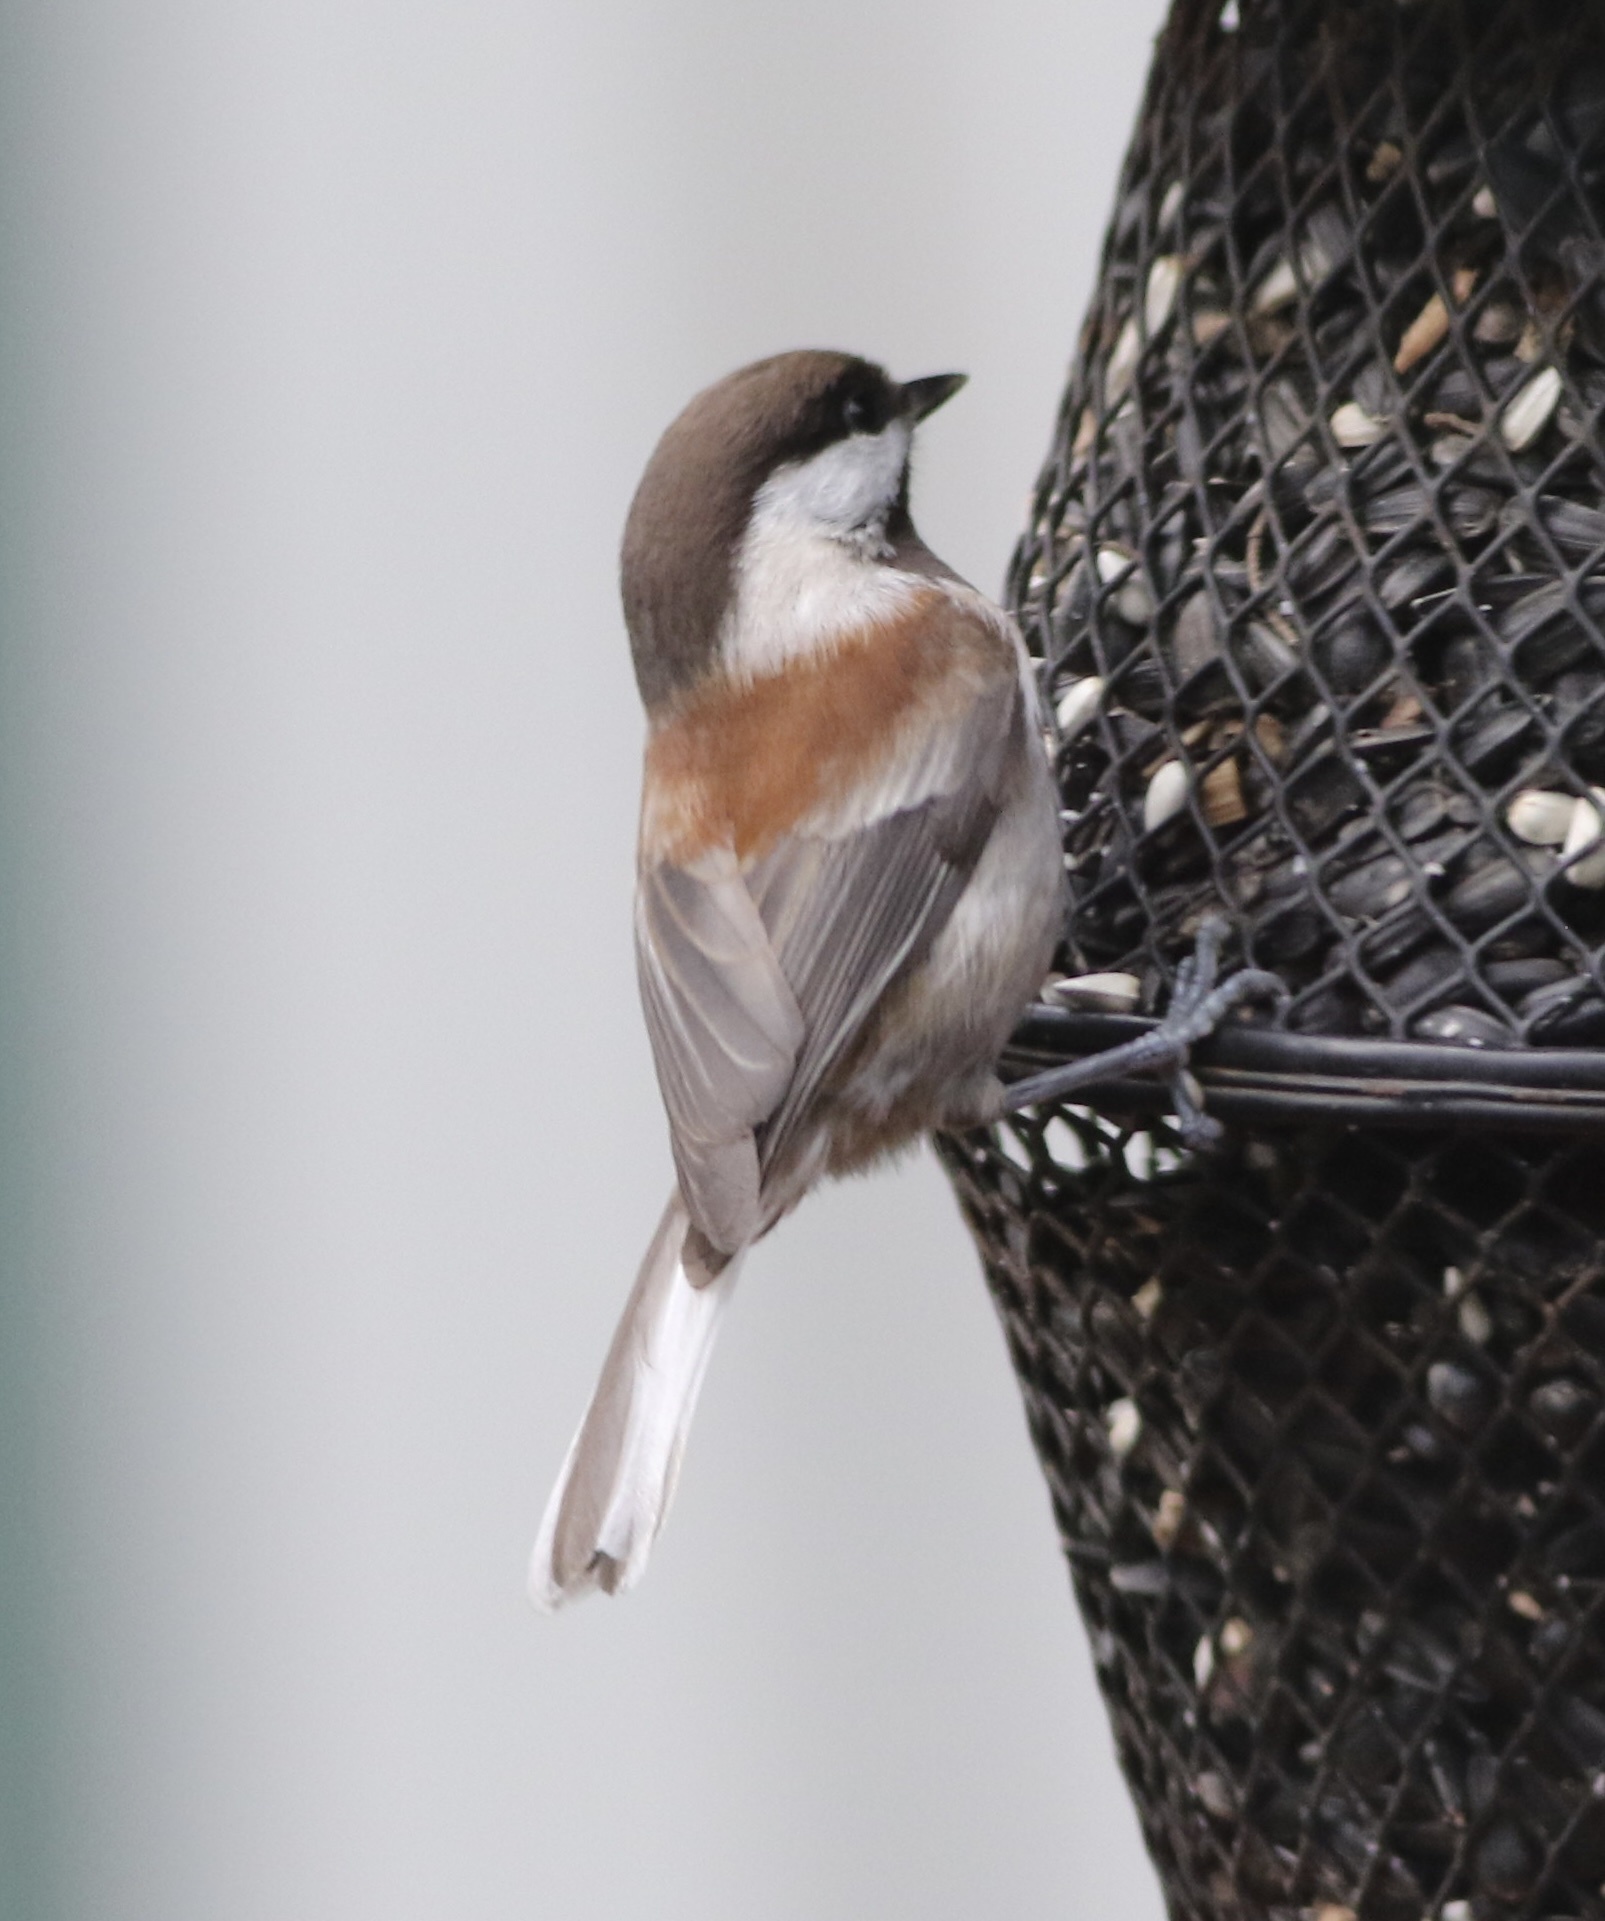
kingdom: Animalia
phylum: Chordata
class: Aves
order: Passeriformes
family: Paridae
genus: Poecile
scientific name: Poecile rufescens
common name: Chestnut-backed chickadee
